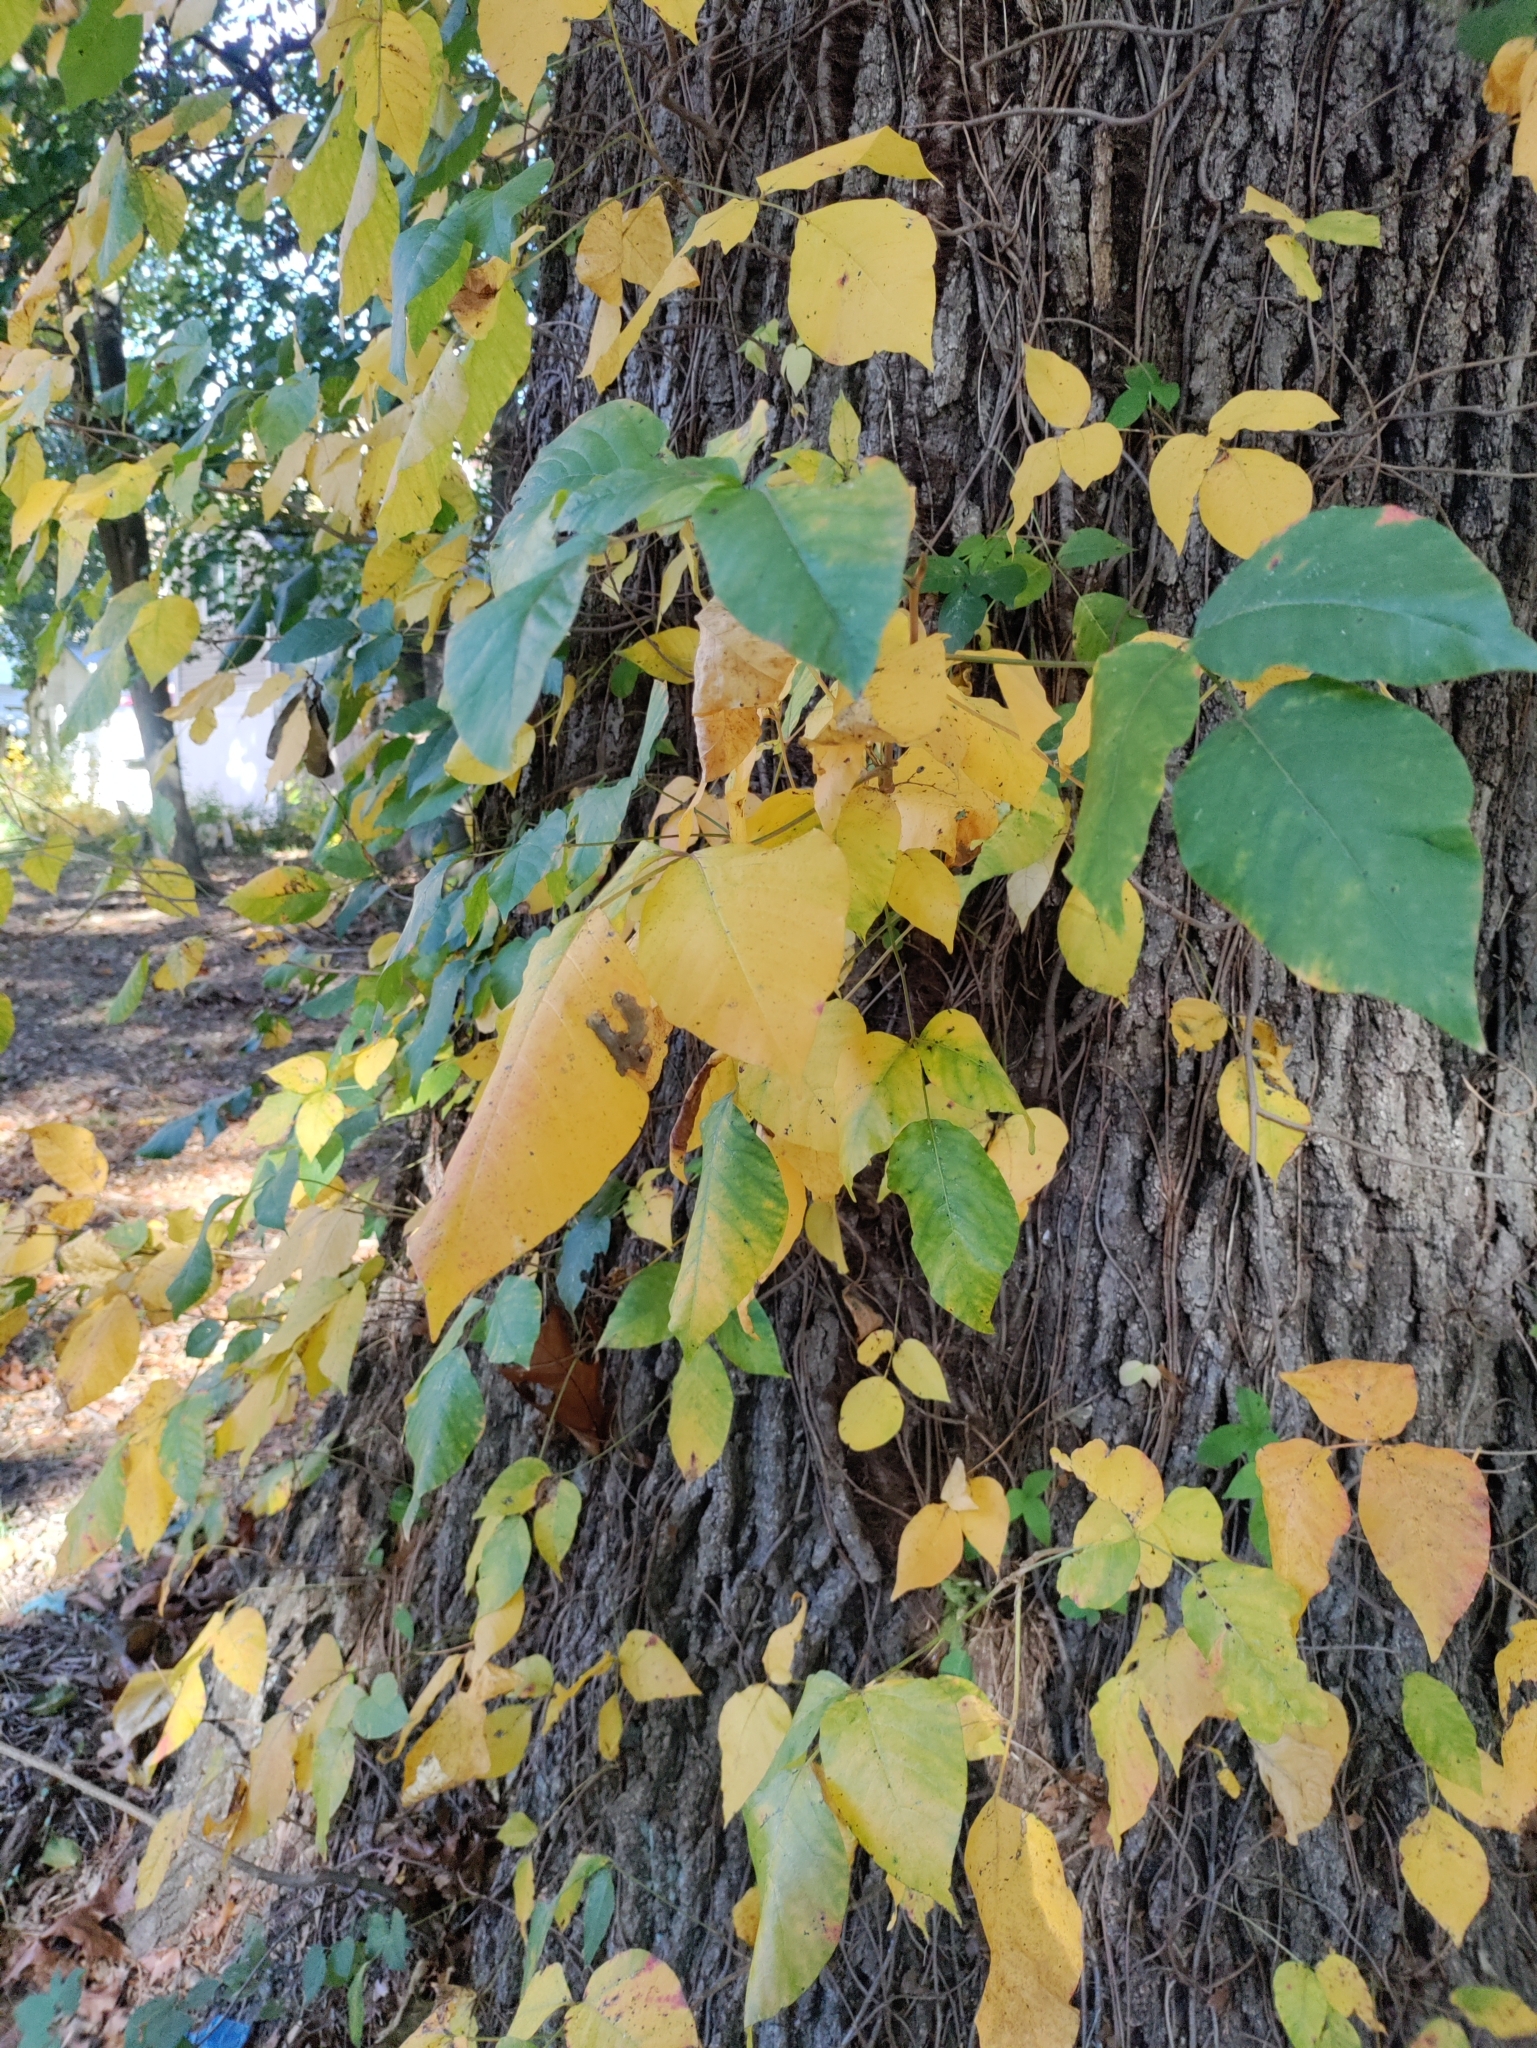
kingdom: Plantae
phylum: Tracheophyta
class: Magnoliopsida
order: Sapindales
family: Anacardiaceae
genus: Toxicodendron
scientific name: Toxicodendron radicans
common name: Poison ivy
